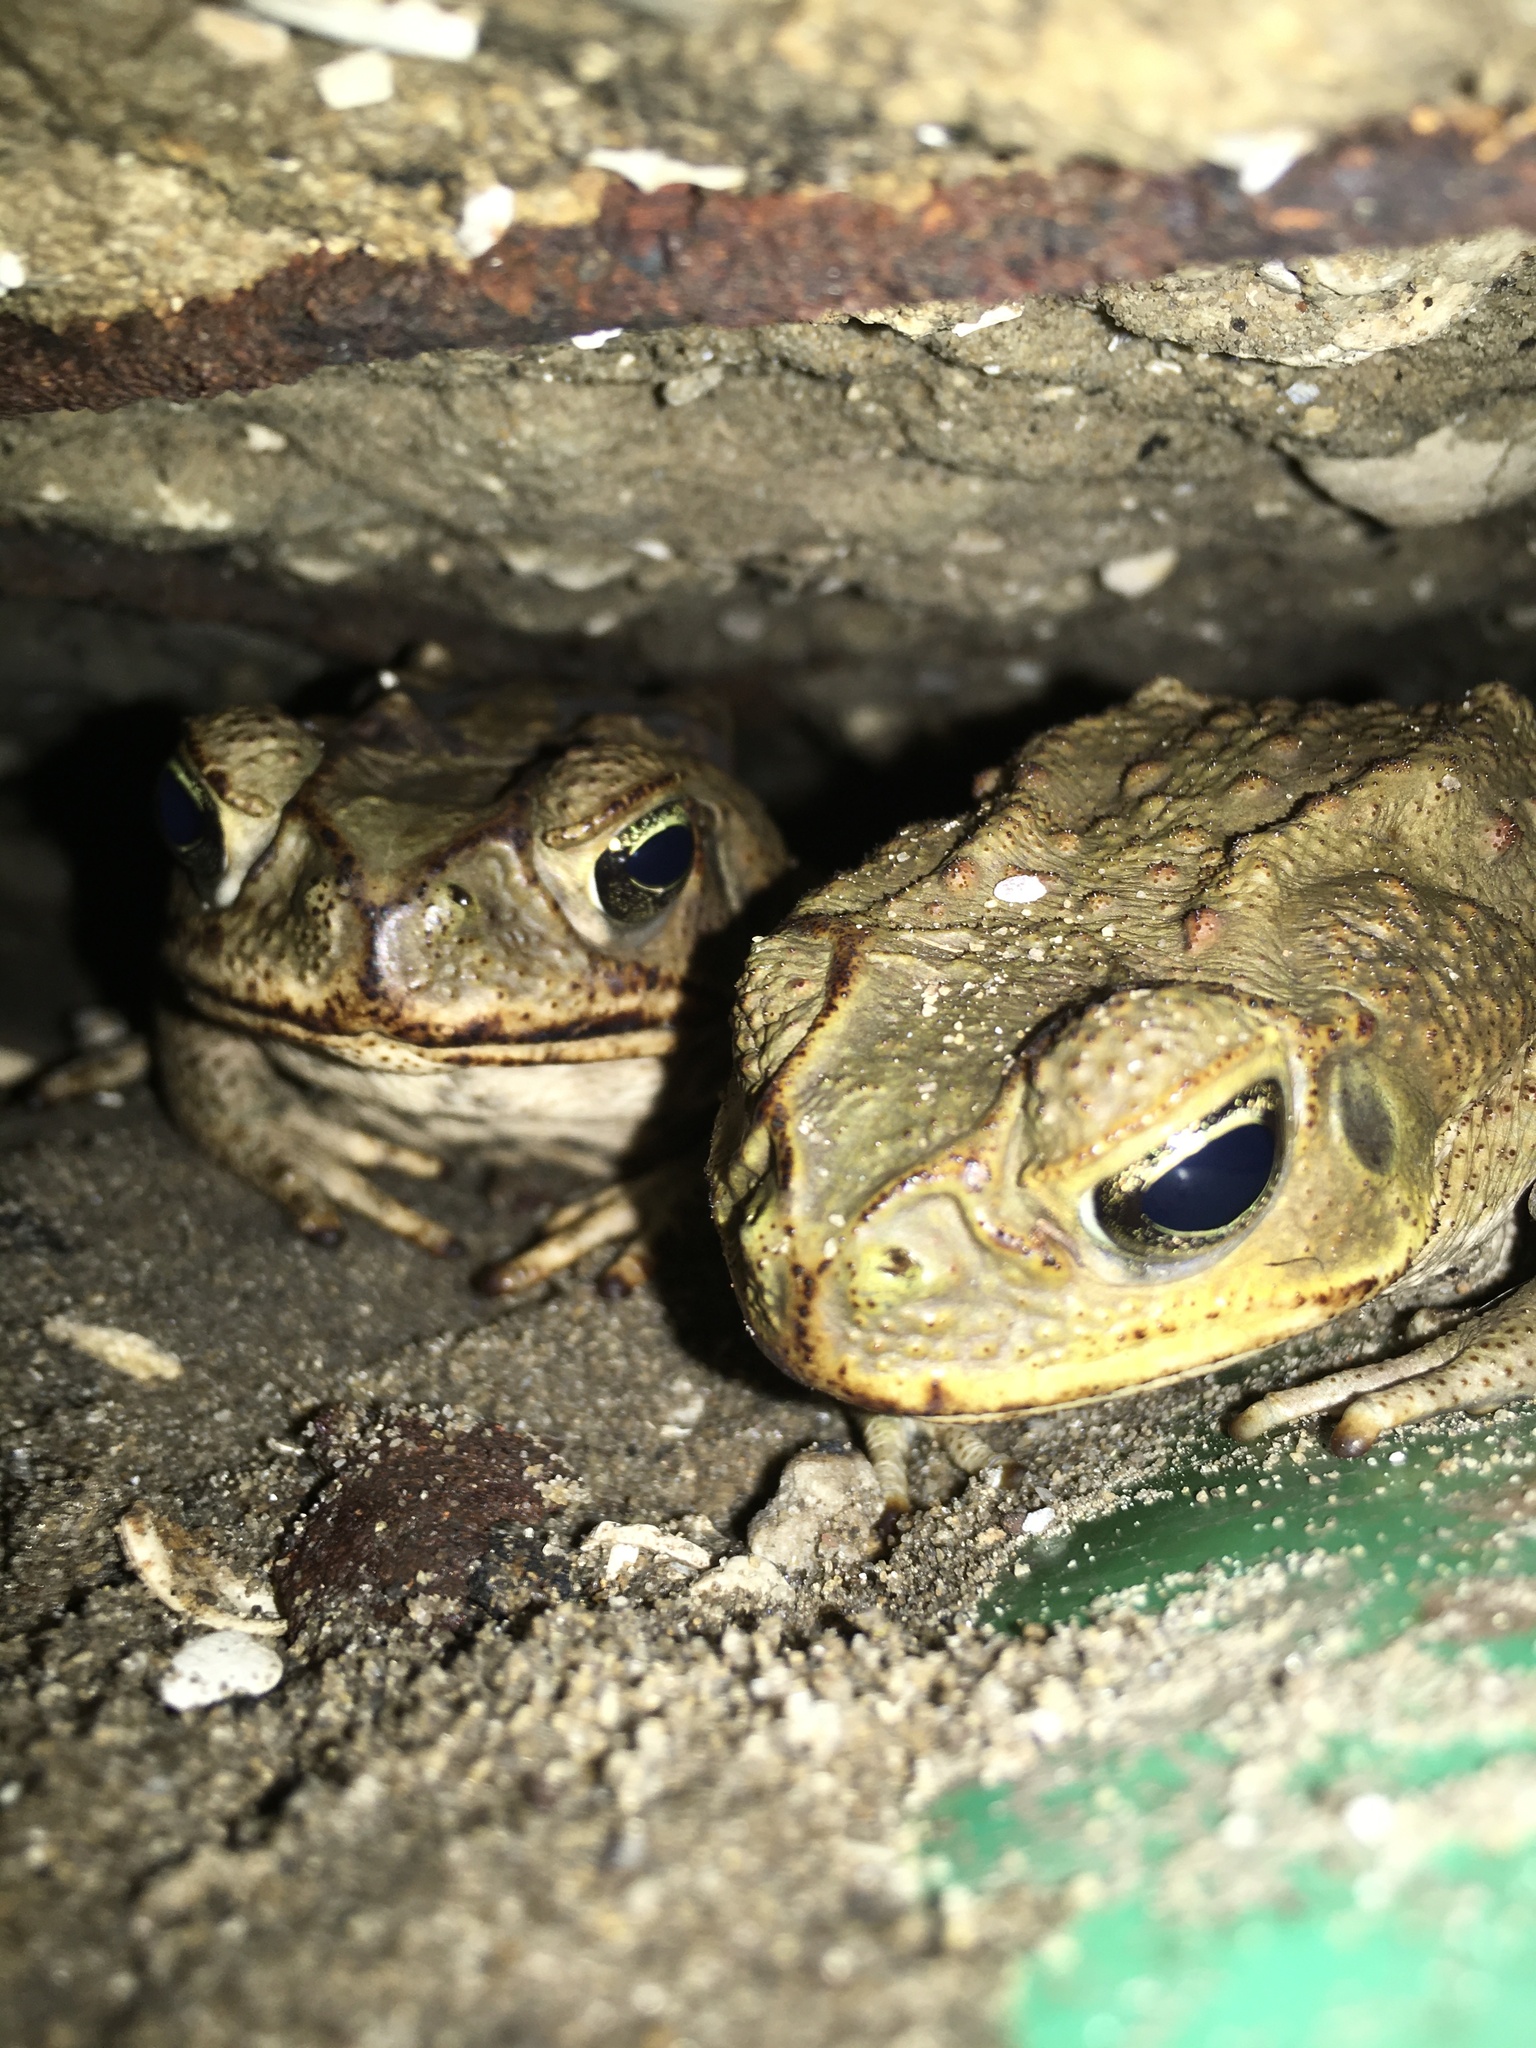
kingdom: Animalia
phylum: Chordata
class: Amphibia
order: Anura
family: Bufonidae
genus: Rhinella
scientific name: Rhinella marina
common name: Cane toad
